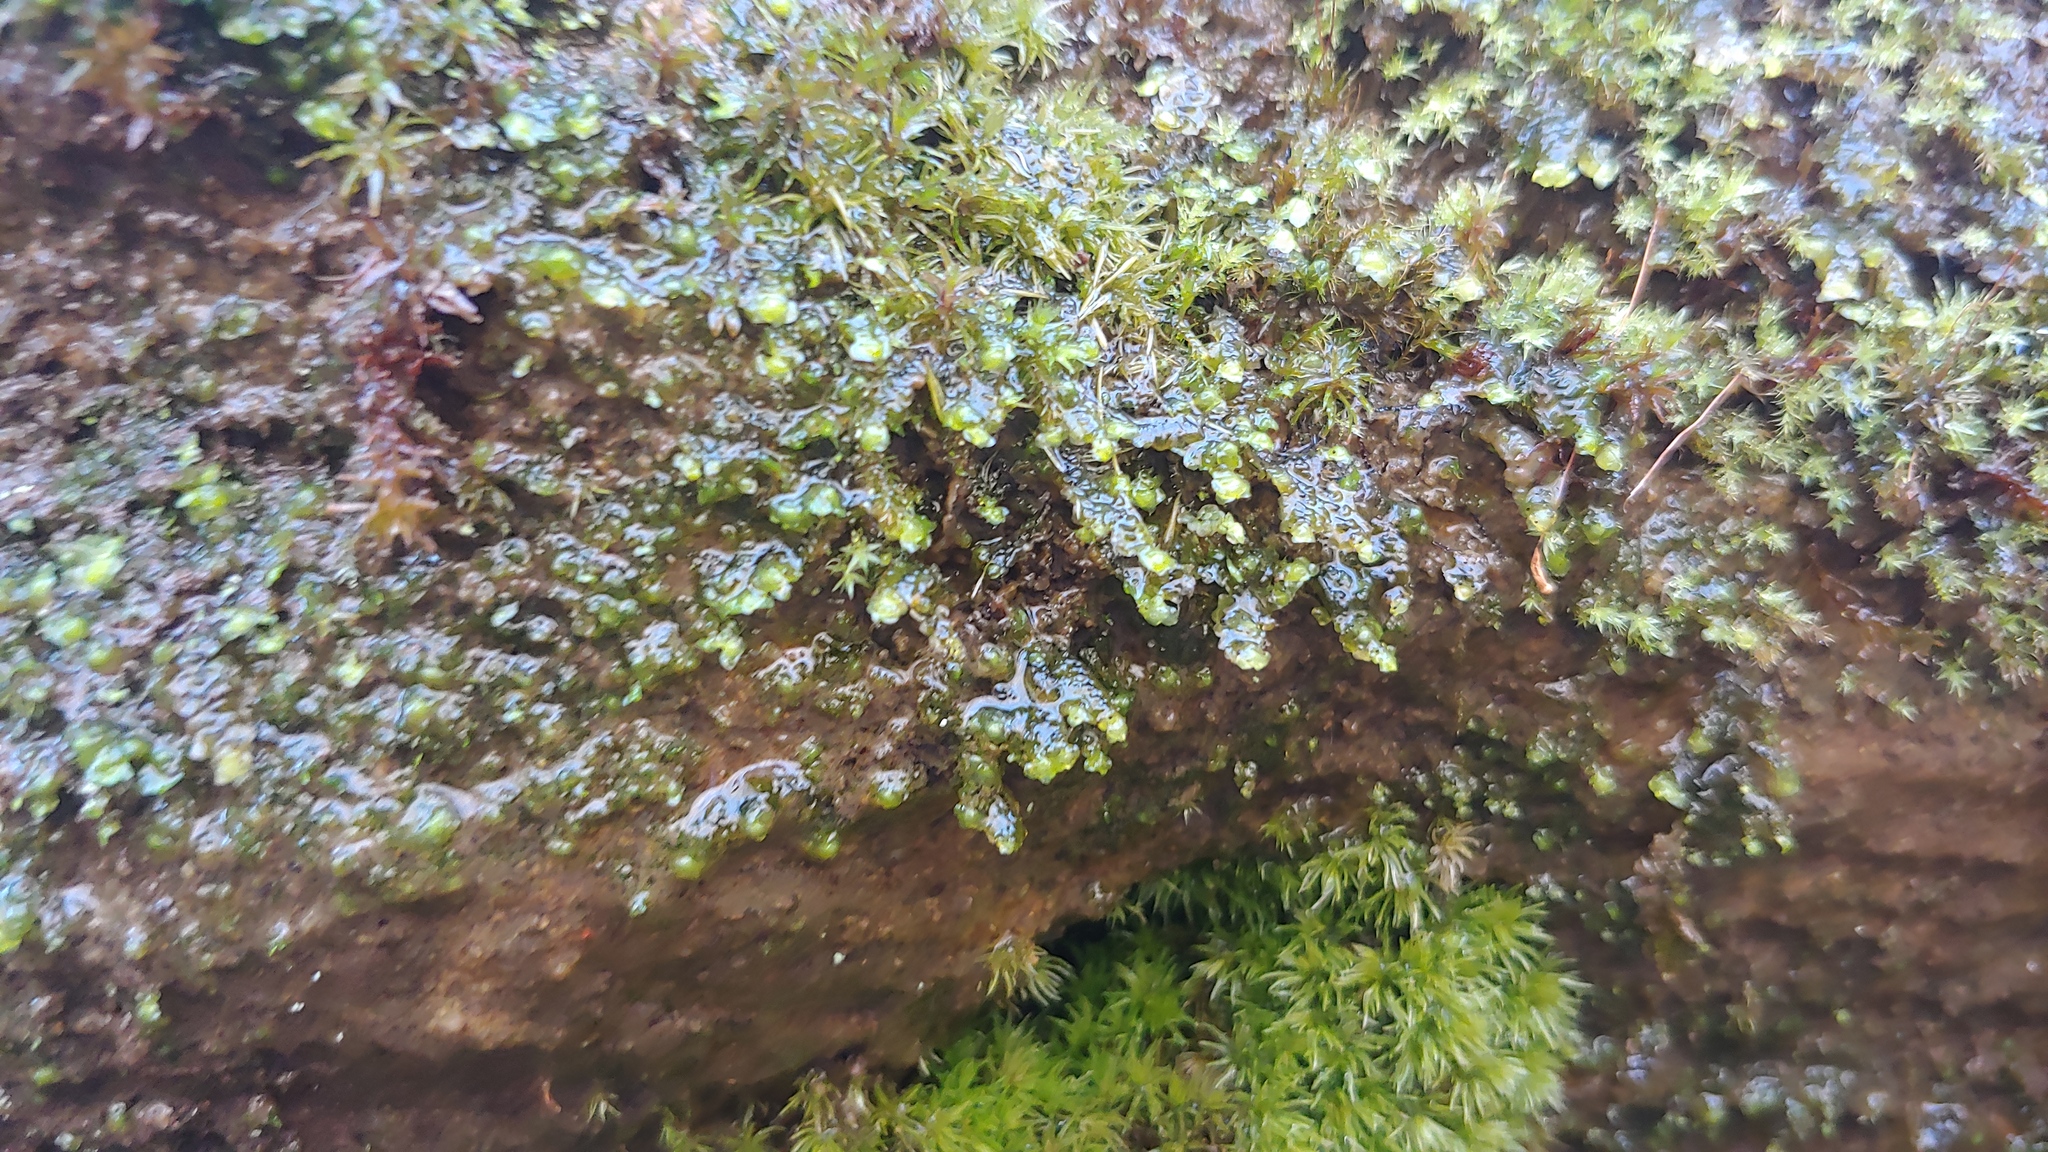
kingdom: Plantae
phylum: Marchantiophyta
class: Jungermanniopsida
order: Jungermanniales
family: Scapaniaceae
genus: Scapania
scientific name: Scapania nemorea
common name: Grove earwort
